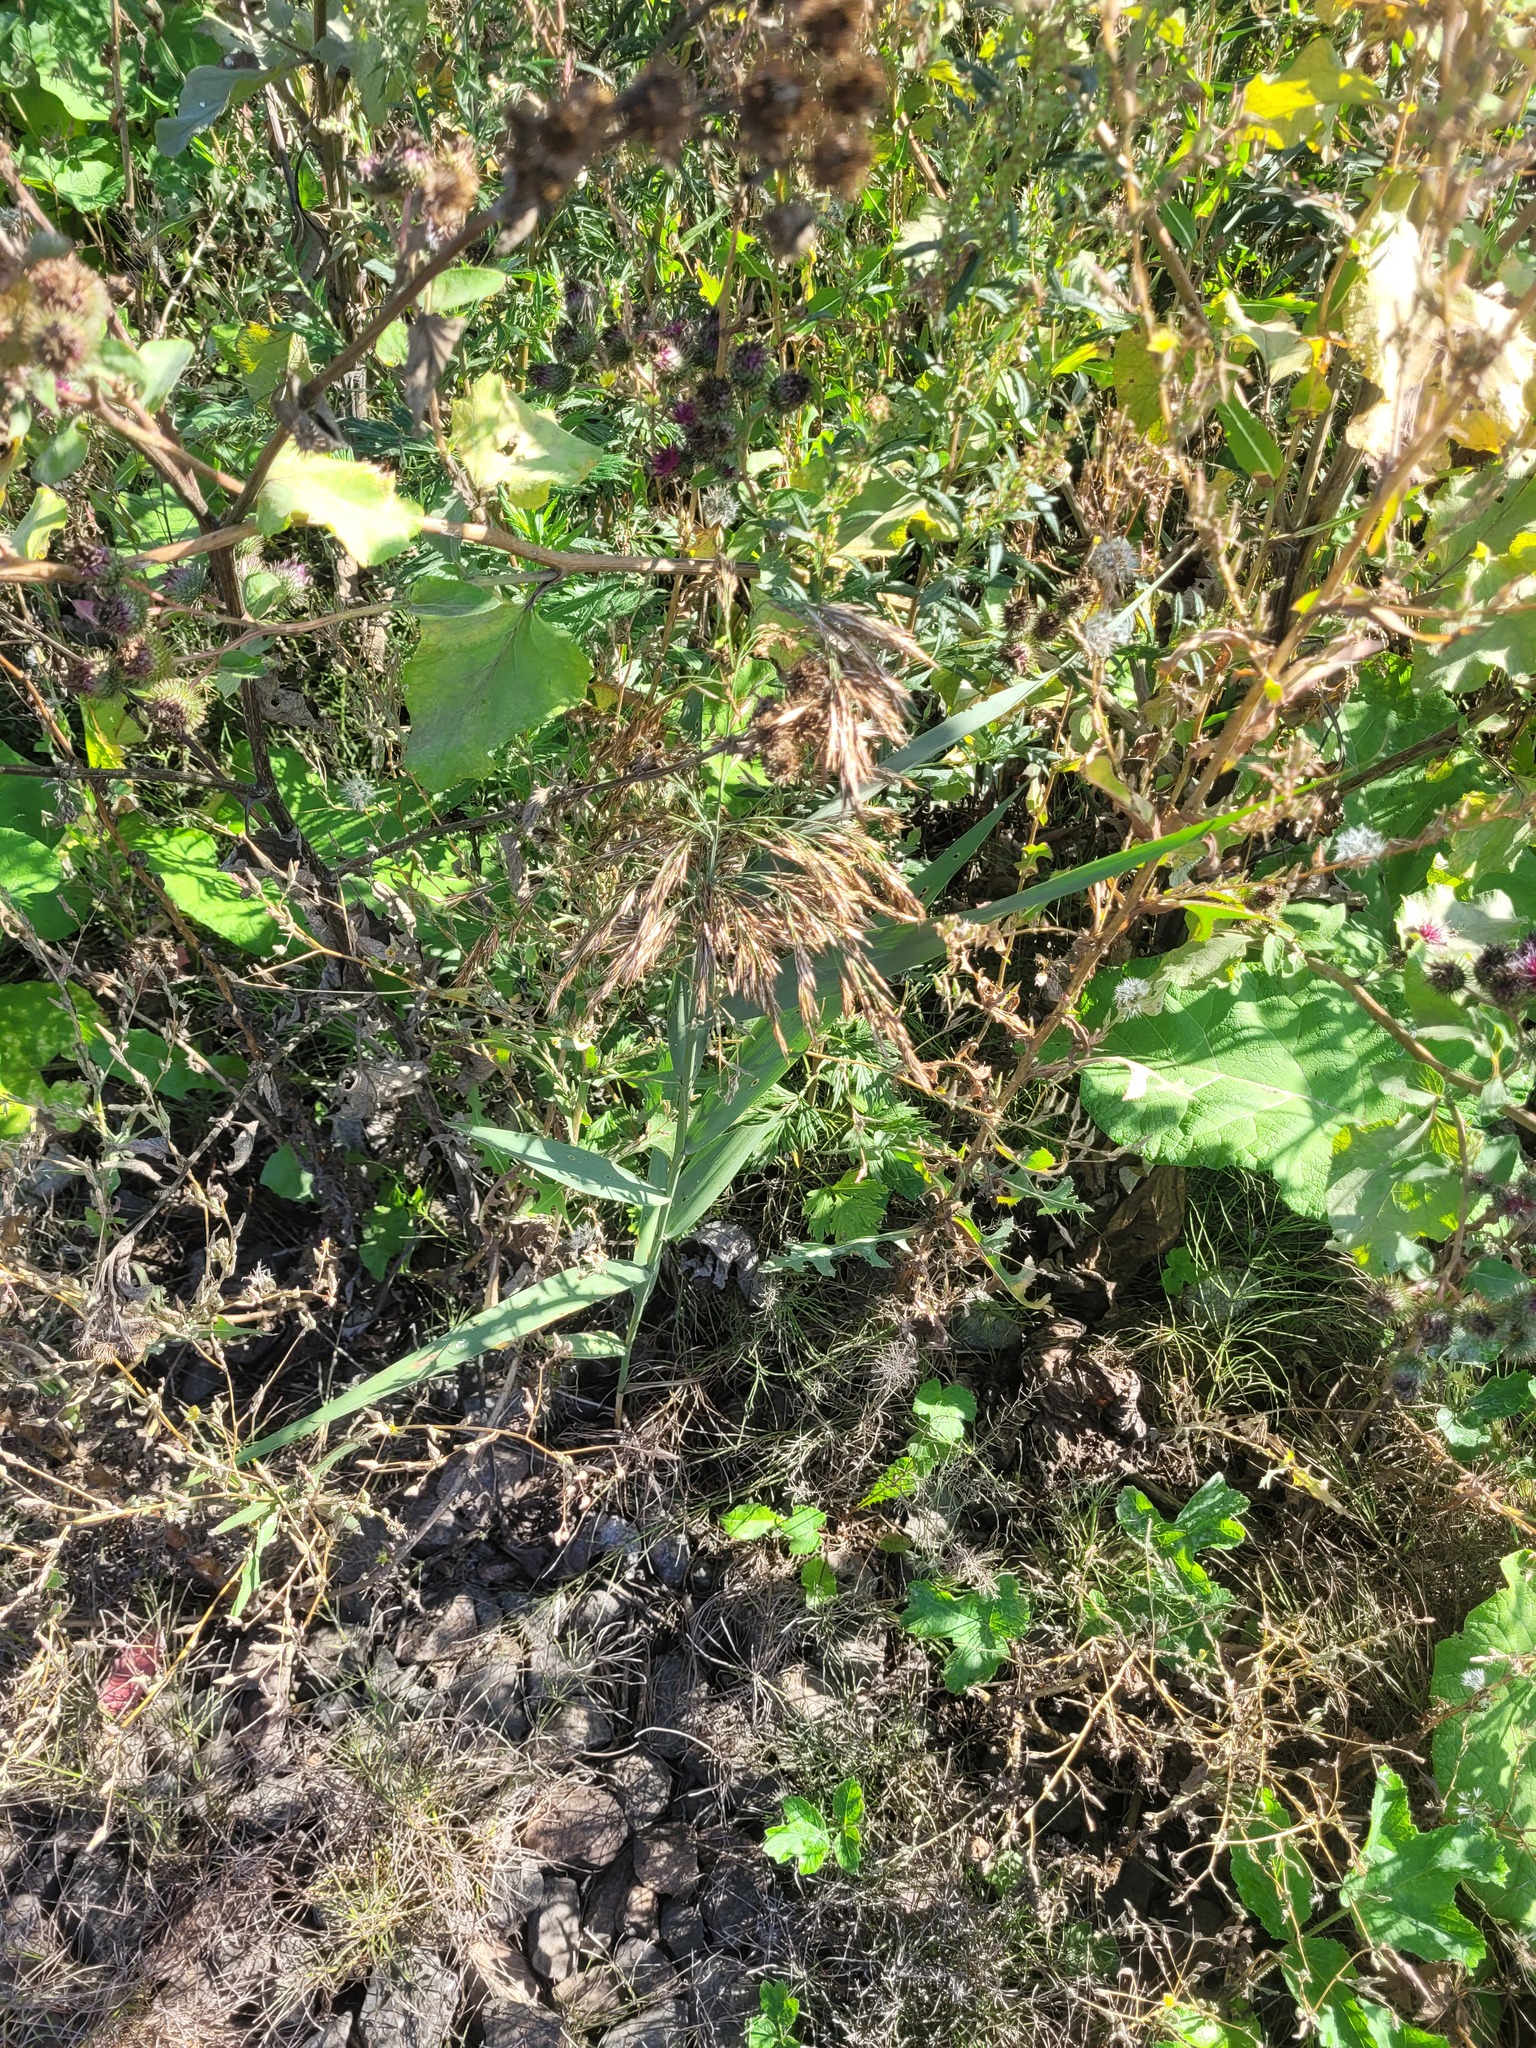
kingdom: Plantae
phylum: Tracheophyta
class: Liliopsida
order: Poales
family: Poaceae
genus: Phragmites
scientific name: Phragmites australis
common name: Common reed
